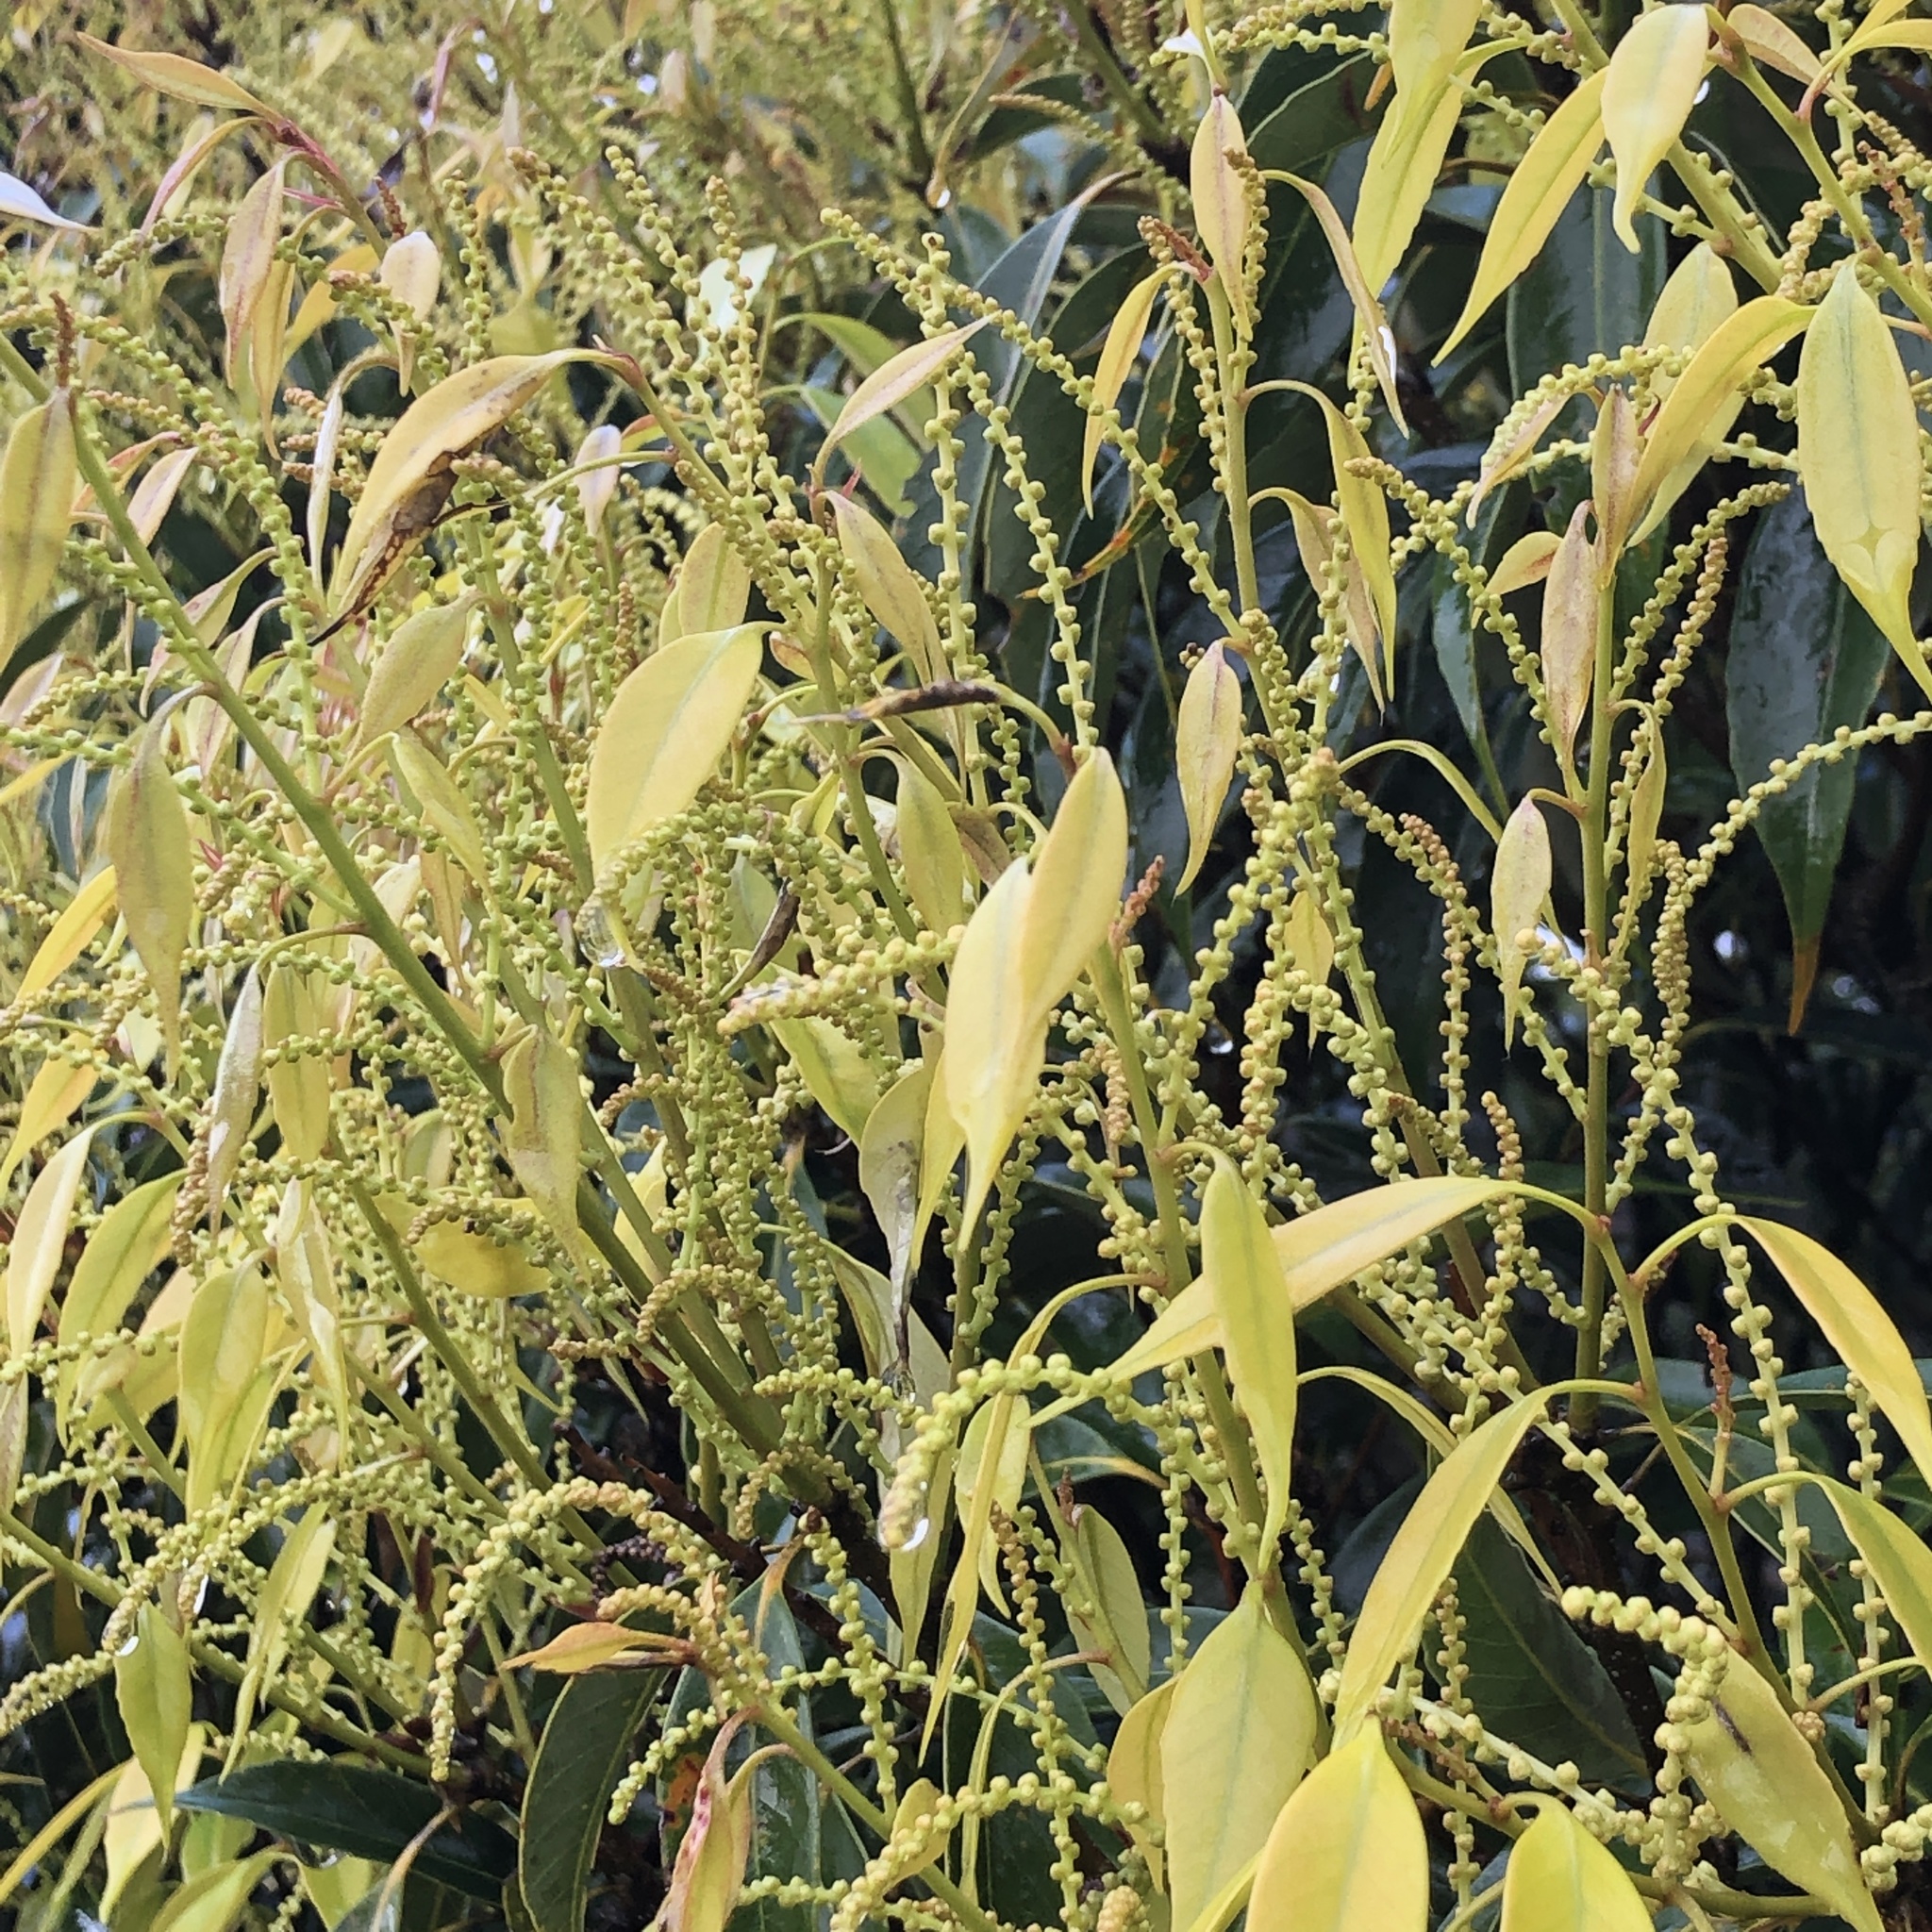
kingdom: Plantae
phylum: Tracheophyta
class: Magnoliopsida
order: Fagales
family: Fagaceae
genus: Castanopsis
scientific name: Castanopsis sieboldii
